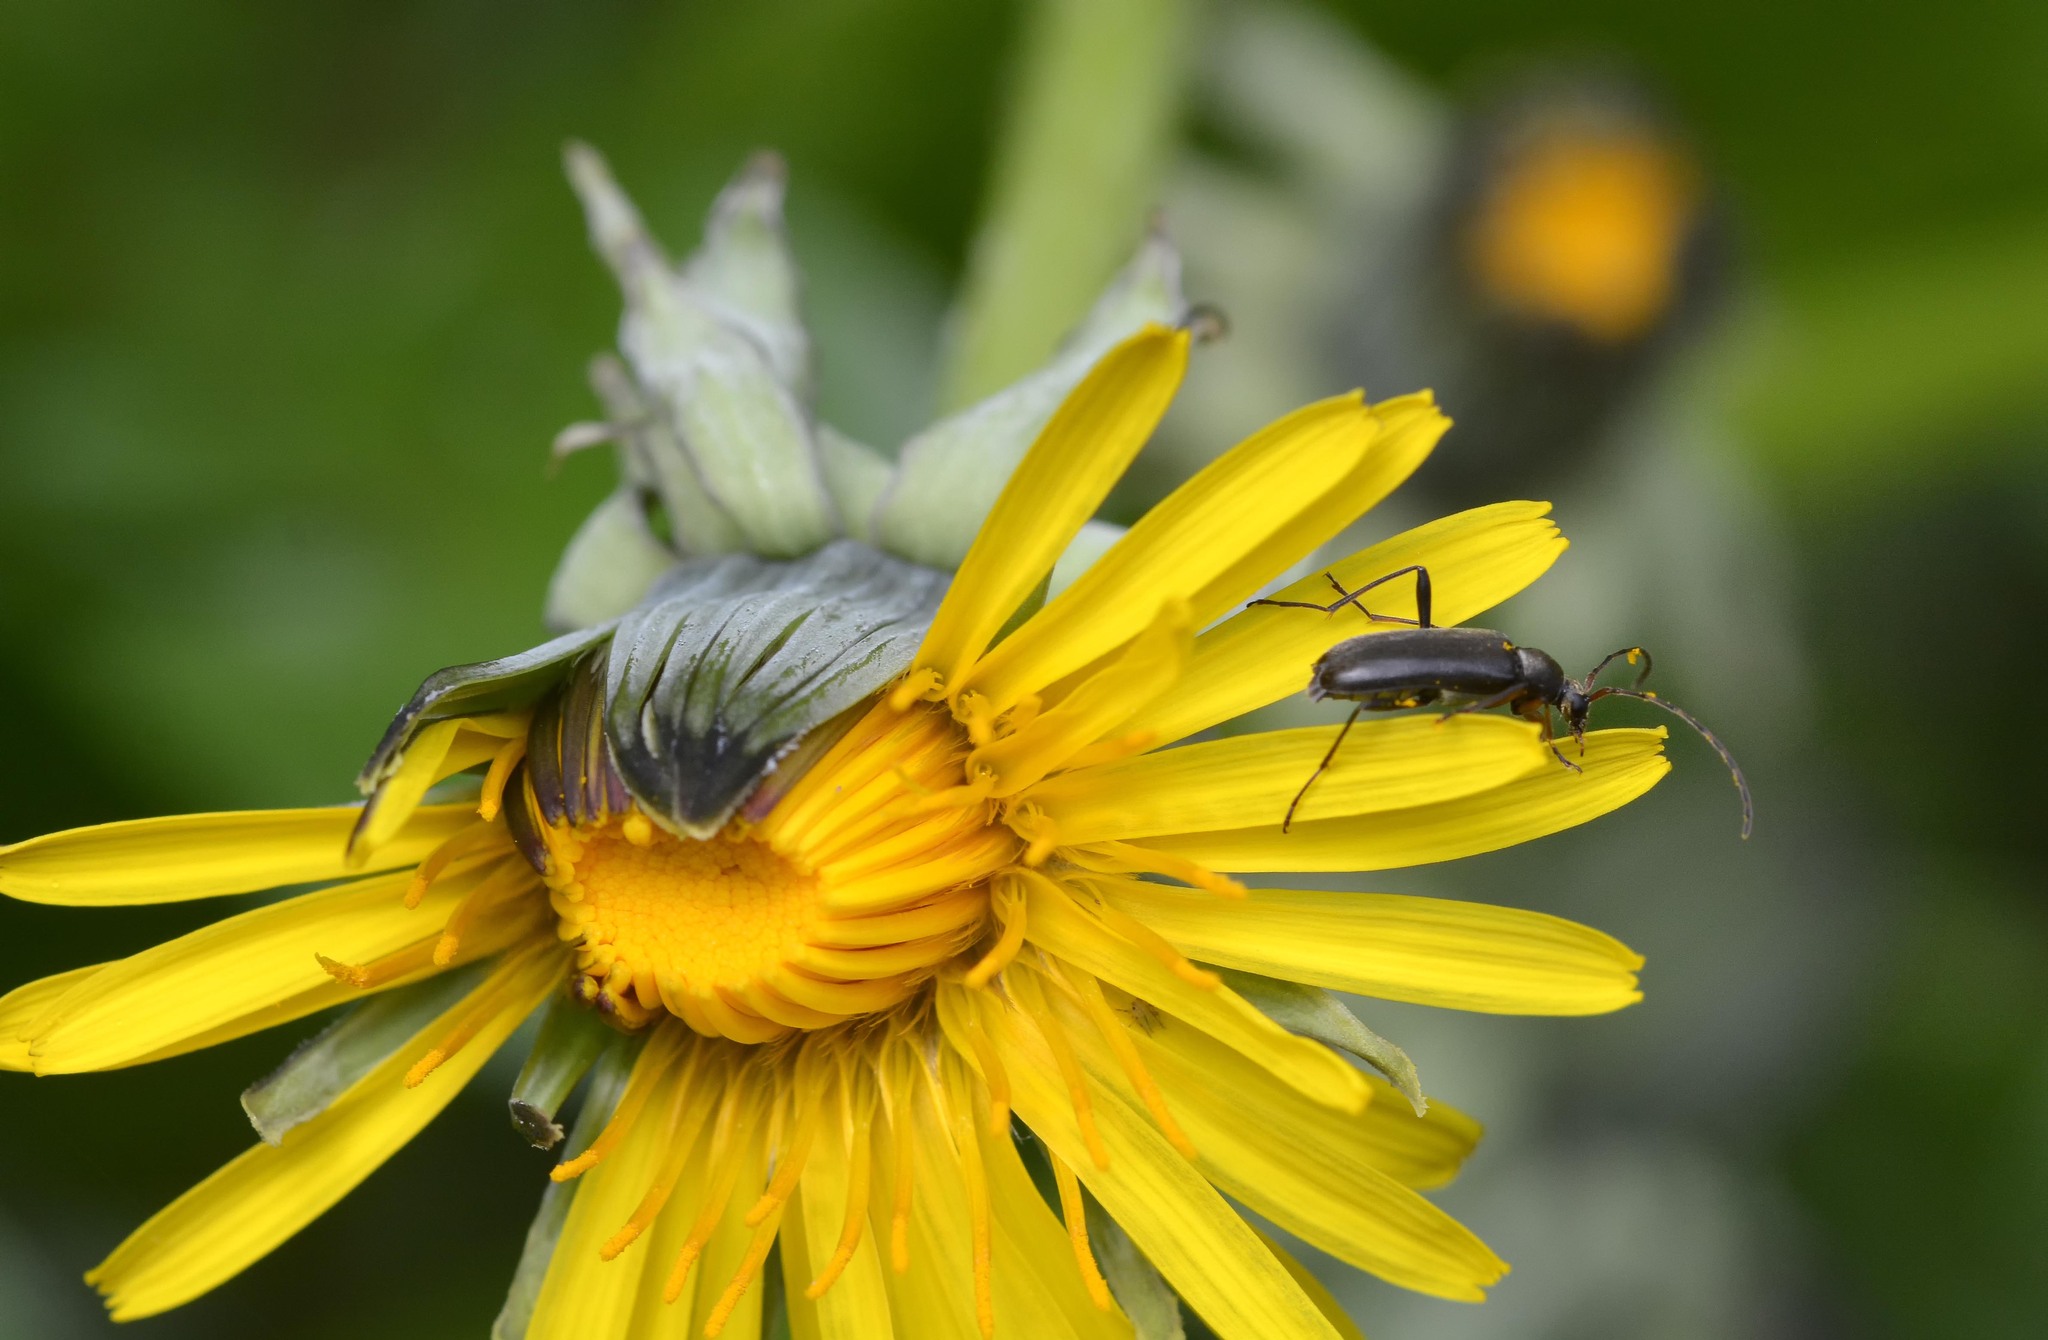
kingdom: Animalia
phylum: Arthropoda
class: Insecta
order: Coleoptera
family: Cerambycidae
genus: Grammoptera
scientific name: Grammoptera ruficornis
